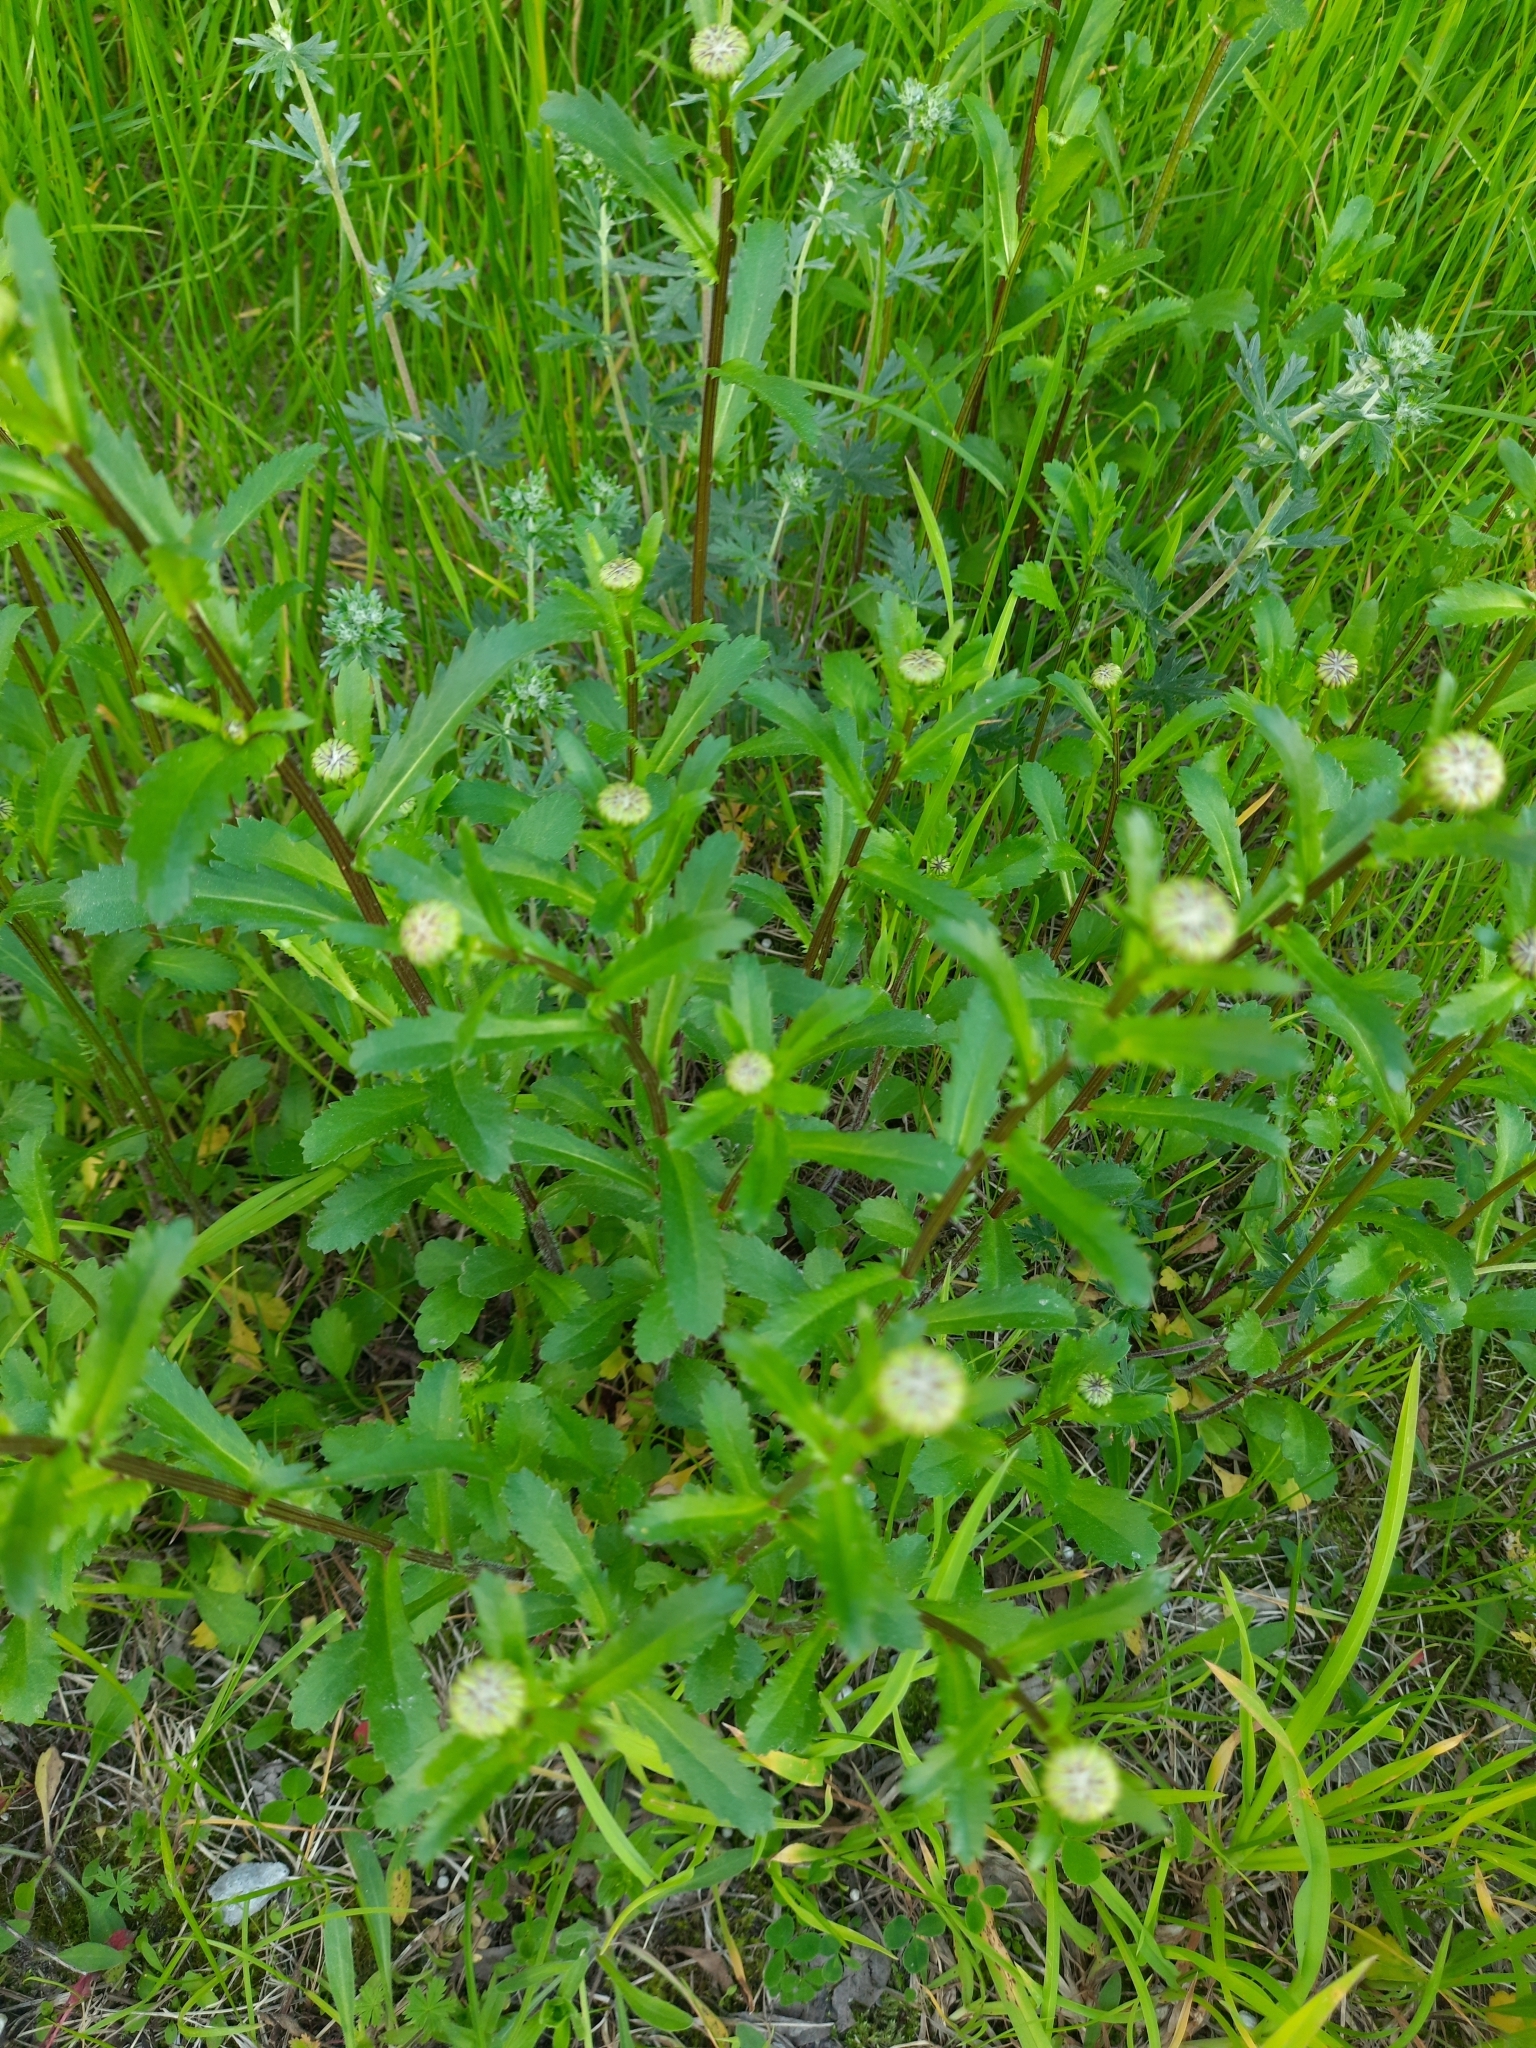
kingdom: Plantae
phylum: Tracheophyta
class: Magnoliopsida
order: Asterales
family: Asteraceae
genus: Leucanthemum
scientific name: Leucanthemum ircutianum
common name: Daisy
